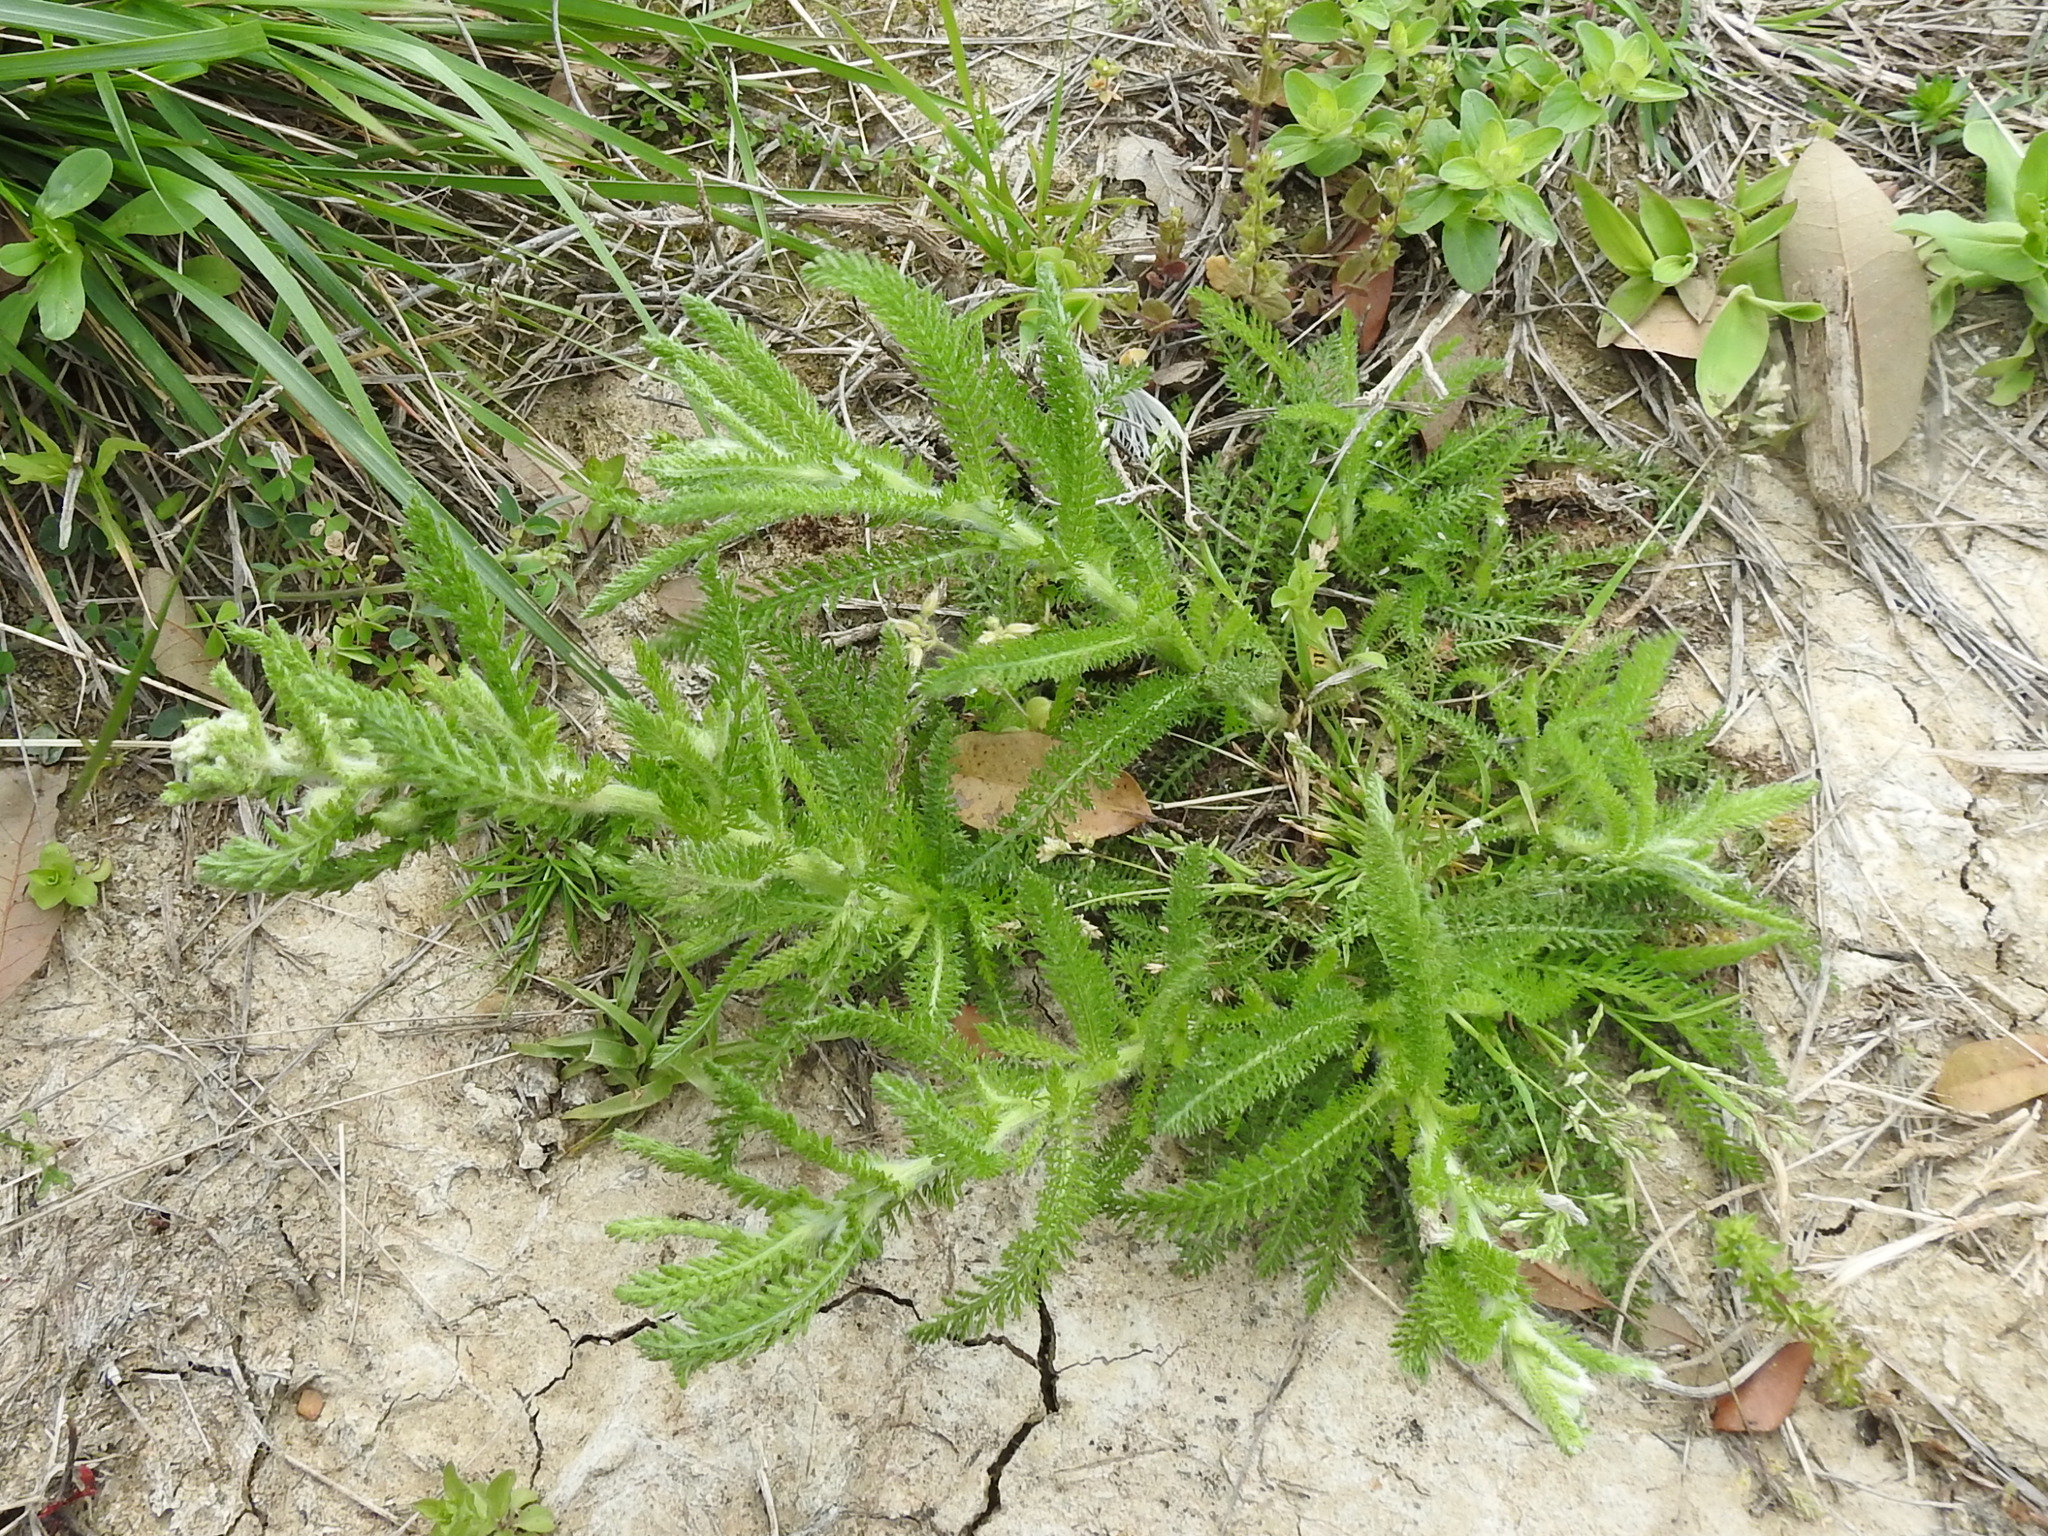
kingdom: Plantae
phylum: Tracheophyta
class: Magnoliopsida
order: Asterales
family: Asteraceae
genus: Achillea
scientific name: Achillea millefolium
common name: Yarrow
